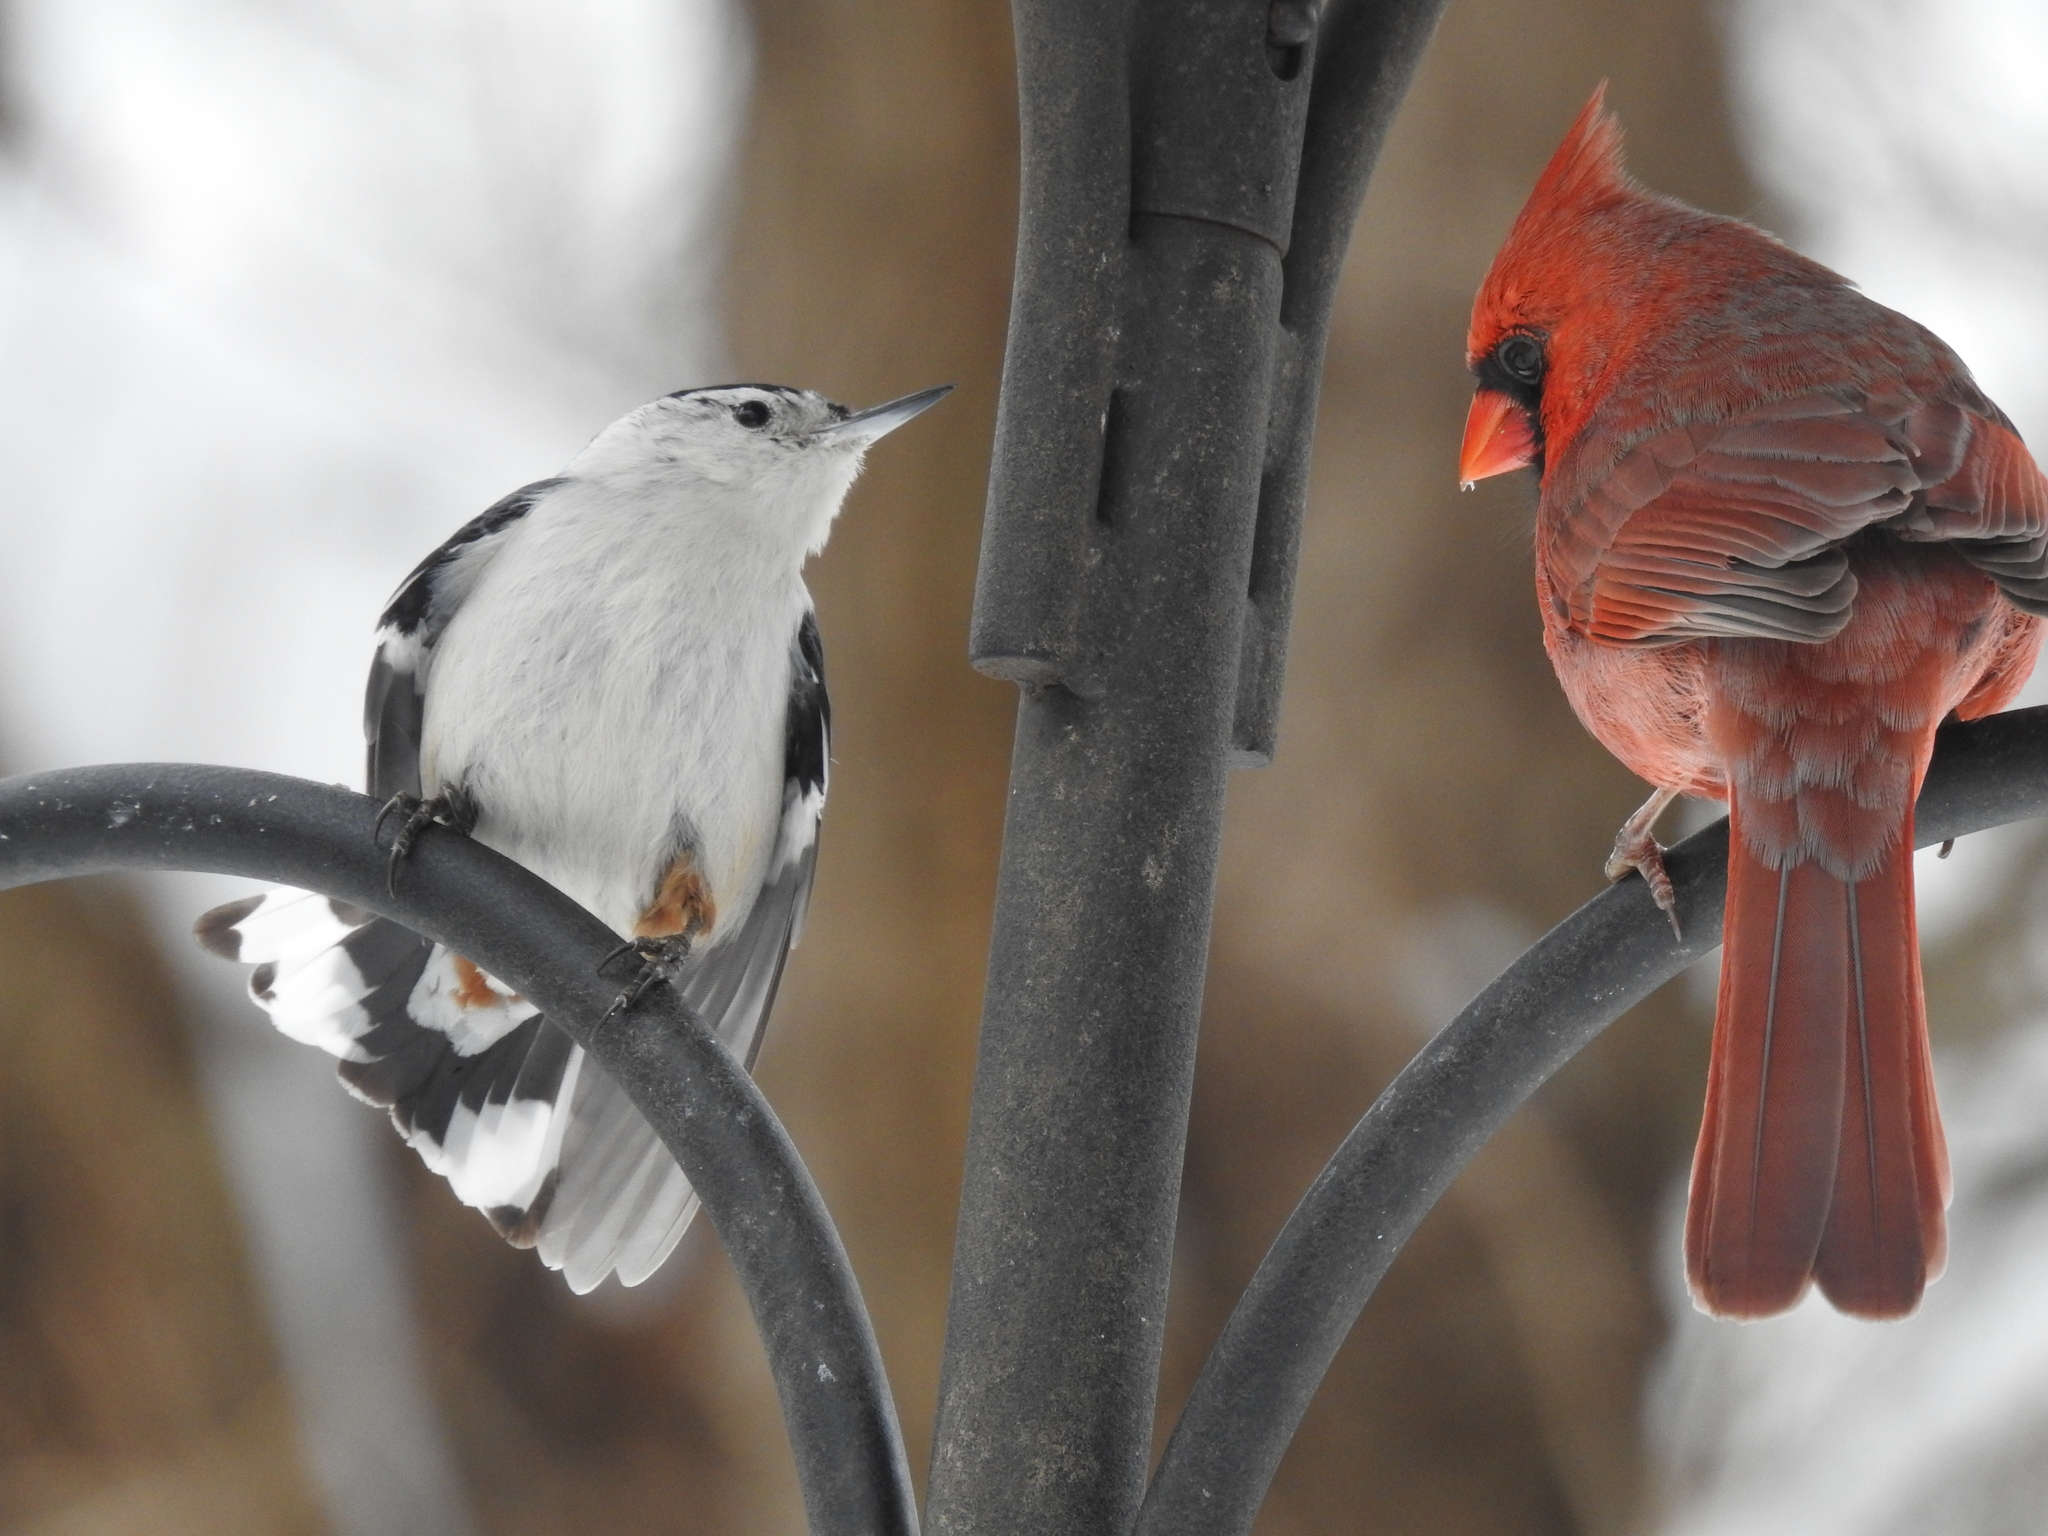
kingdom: Animalia
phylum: Chordata
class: Aves
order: Passeriformes
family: Sittidae
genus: Sitta
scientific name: Sitta carolinensis
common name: White-breasted nuthatch
